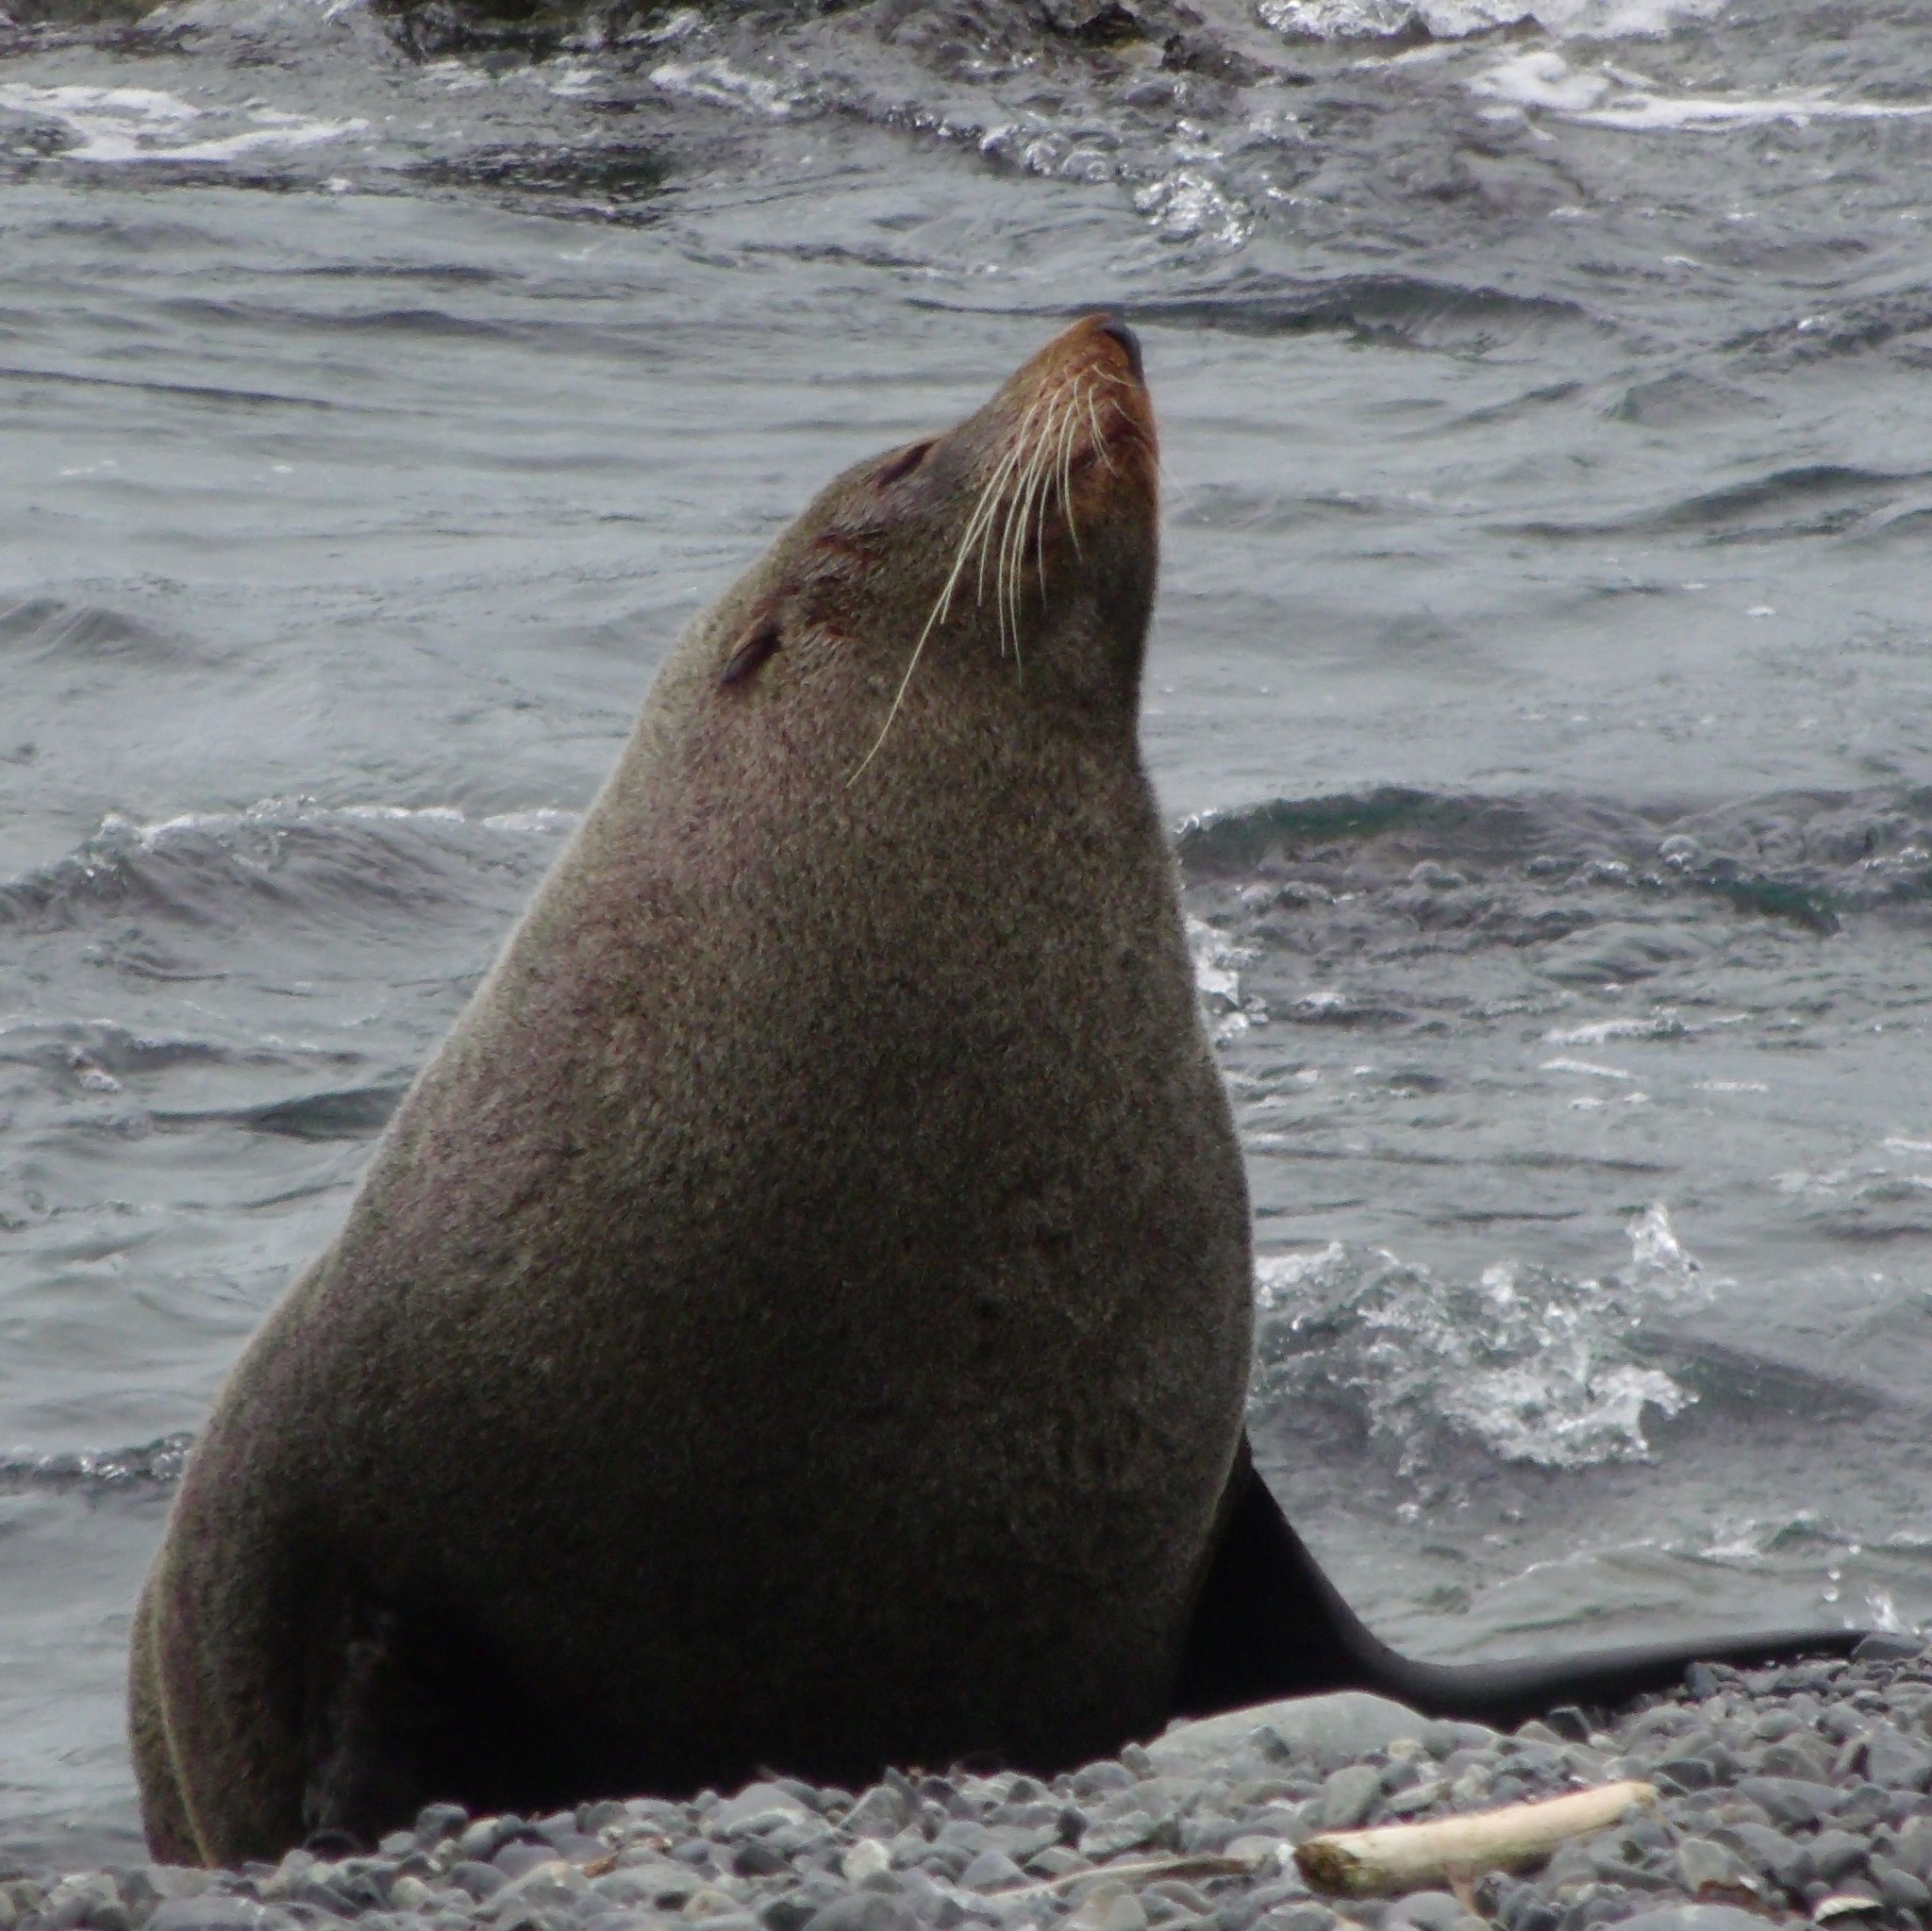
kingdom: Animalia
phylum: Chordata
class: Mammalia
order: Carnivora
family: Otariidae
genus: Arctocephalus
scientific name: Arctocephalus forsteri
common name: New zealand fur seal
